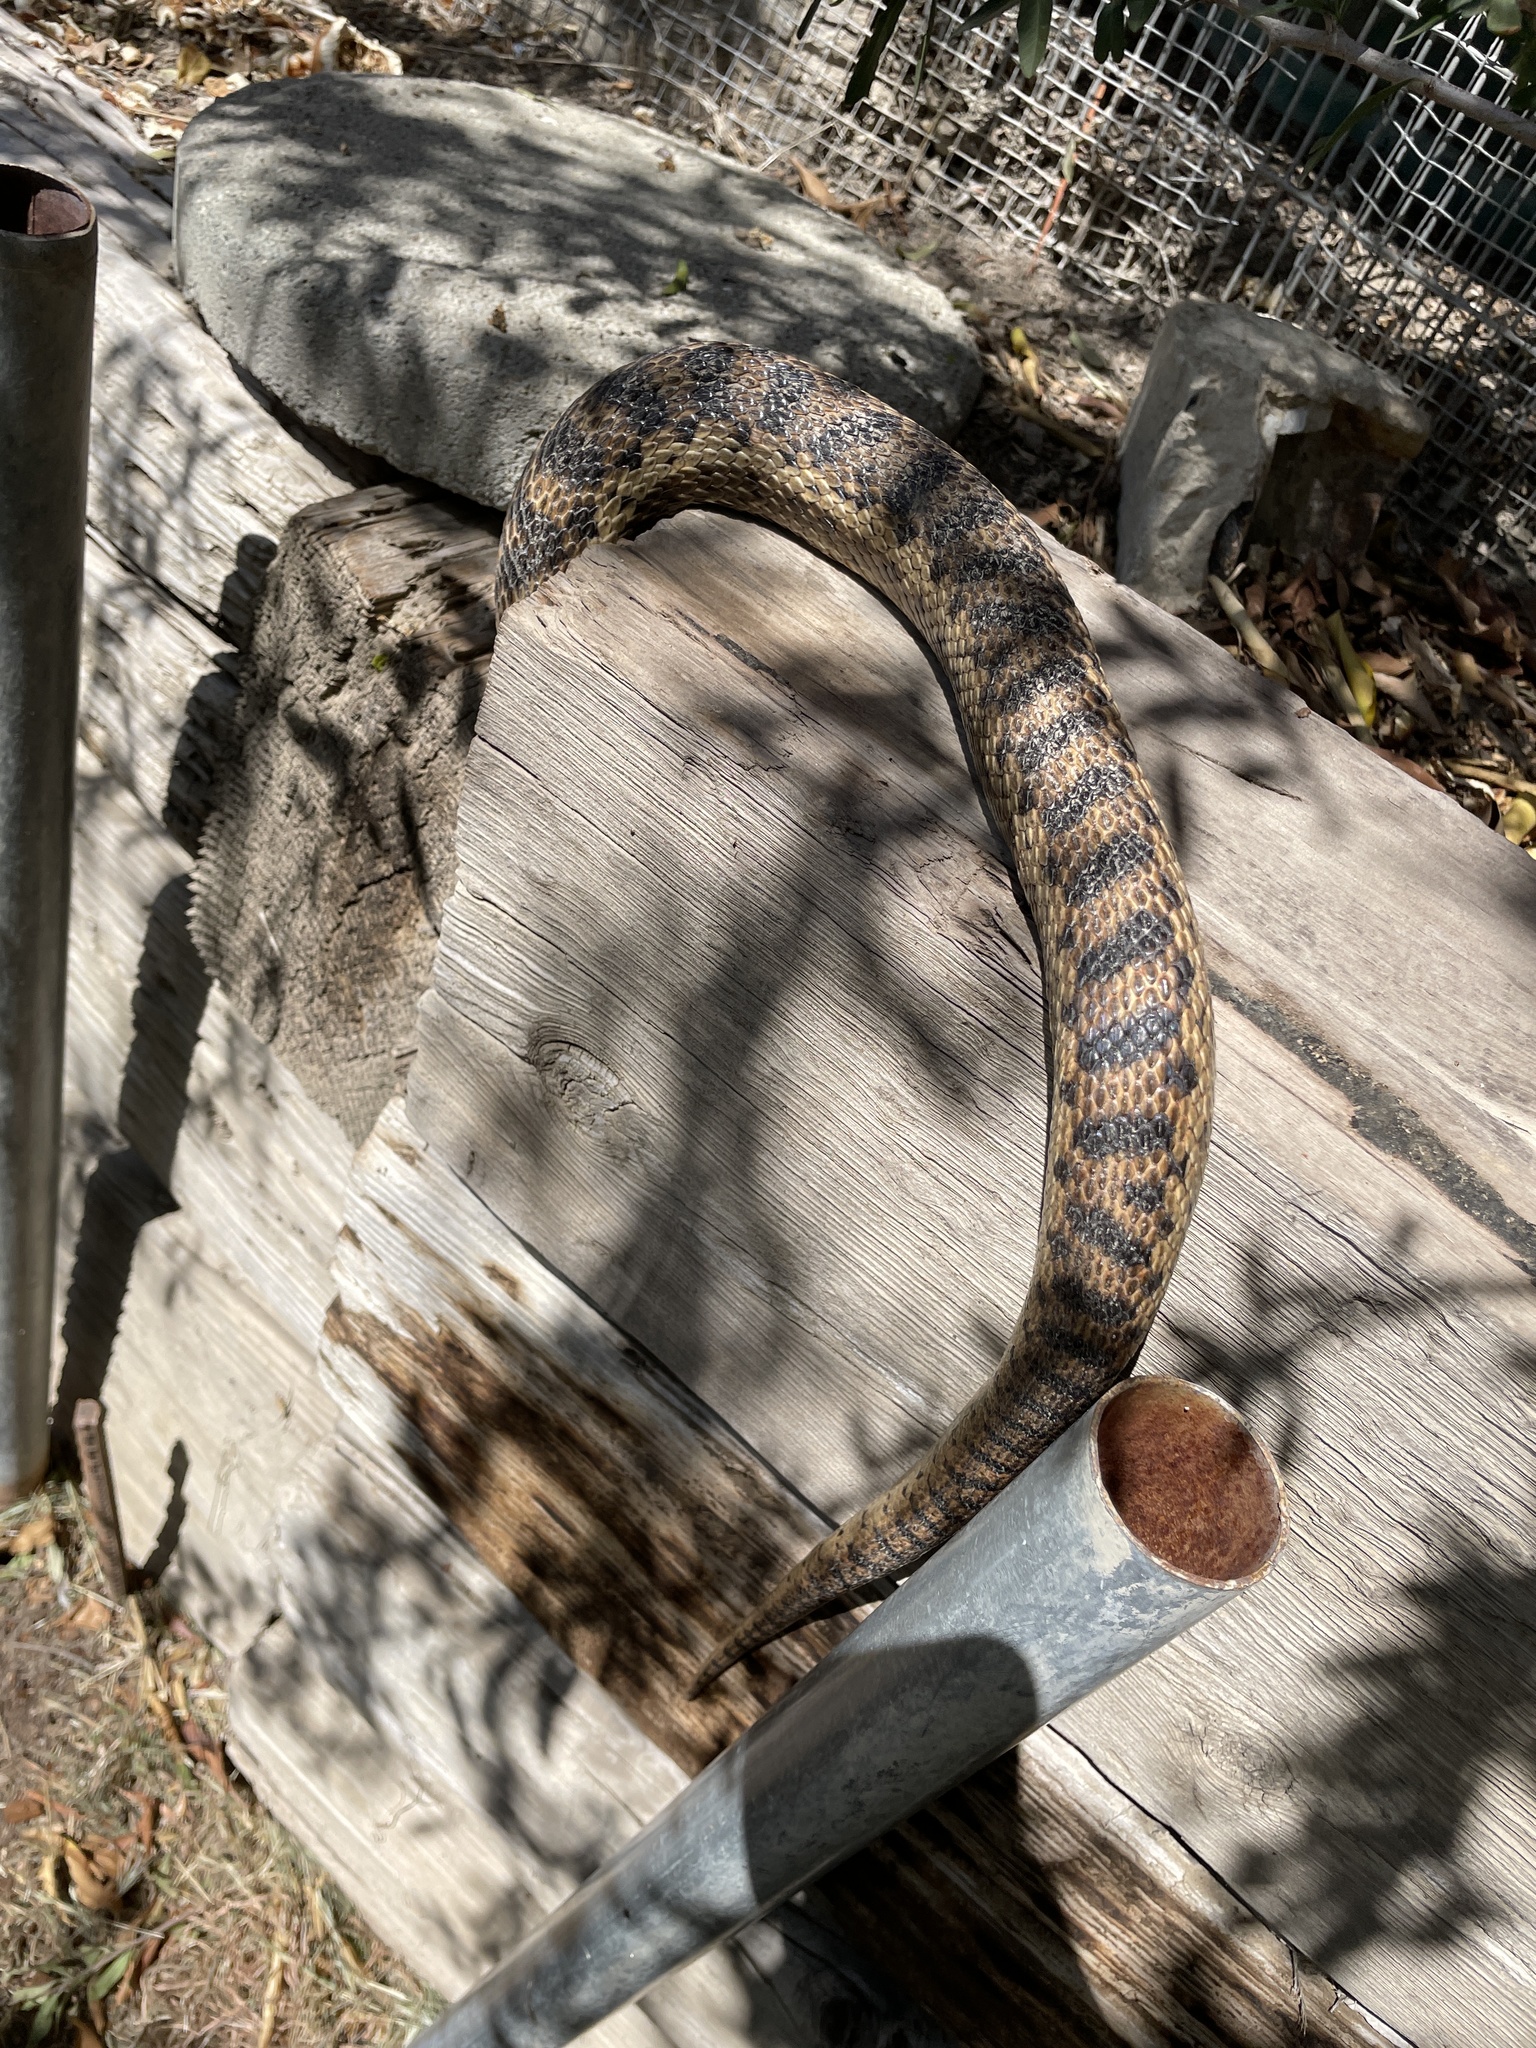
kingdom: Animalia
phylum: Chordata
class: Squamata
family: Colubridae
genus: Pituophis
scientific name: Pituophis catenifer
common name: Gopher snake
